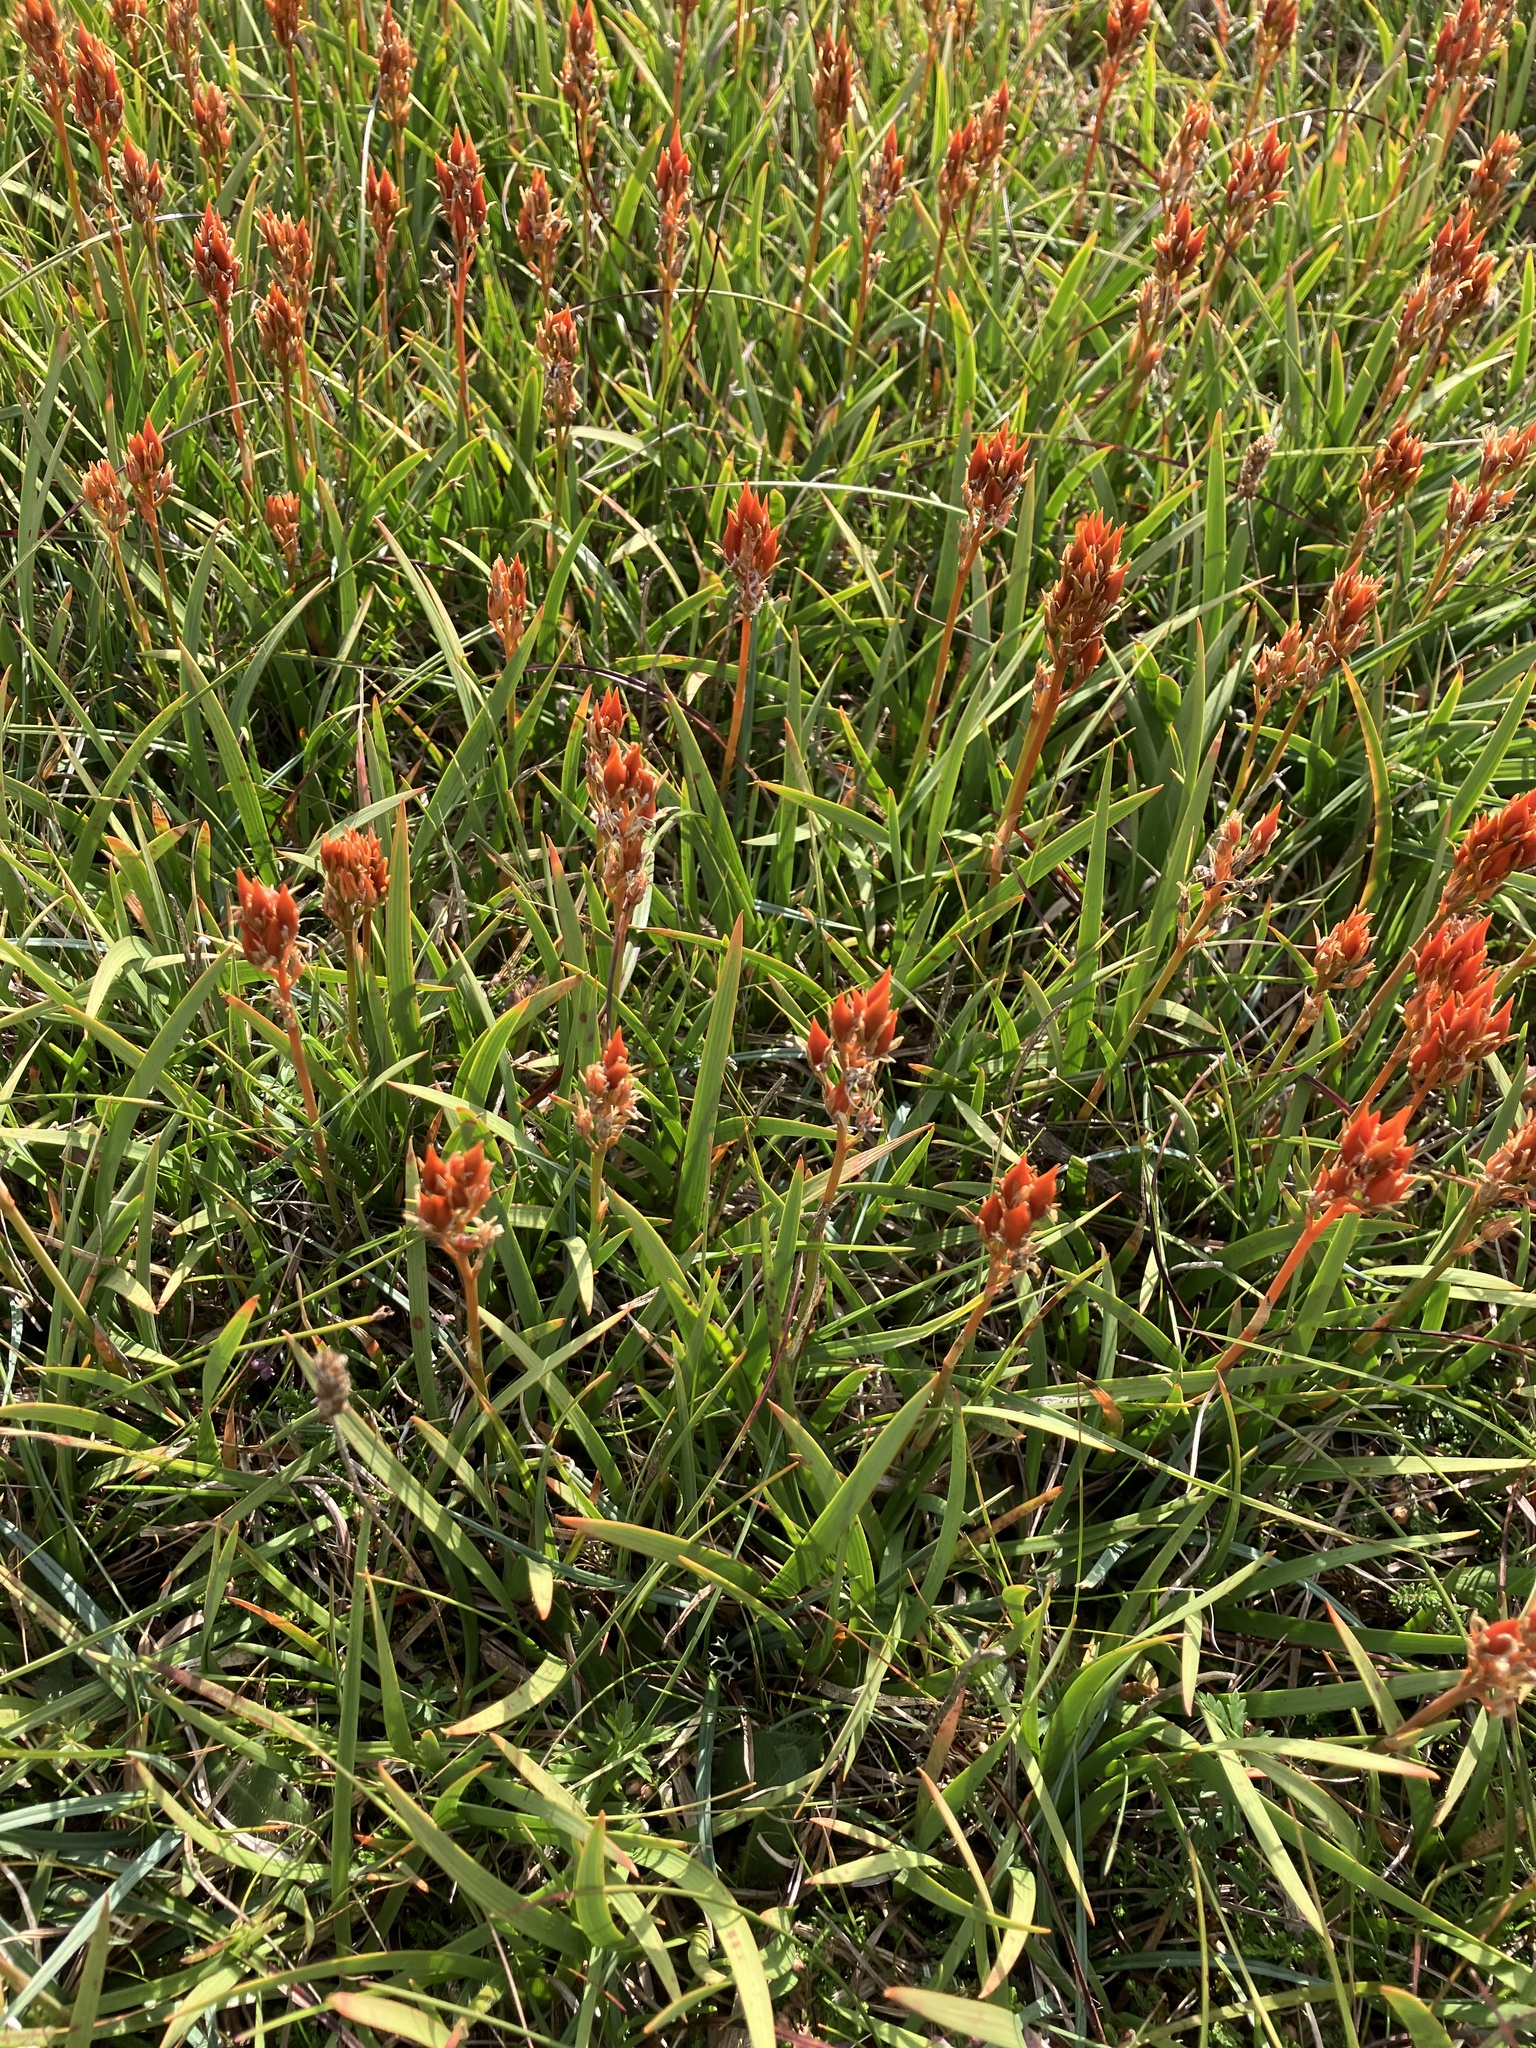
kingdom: Plantae
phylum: Tracheophyta
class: Liliopsida
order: Dioscoreales
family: Nartheciaceae
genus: Narthecium
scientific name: Narthecium ossifragum
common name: Bog asphodel
